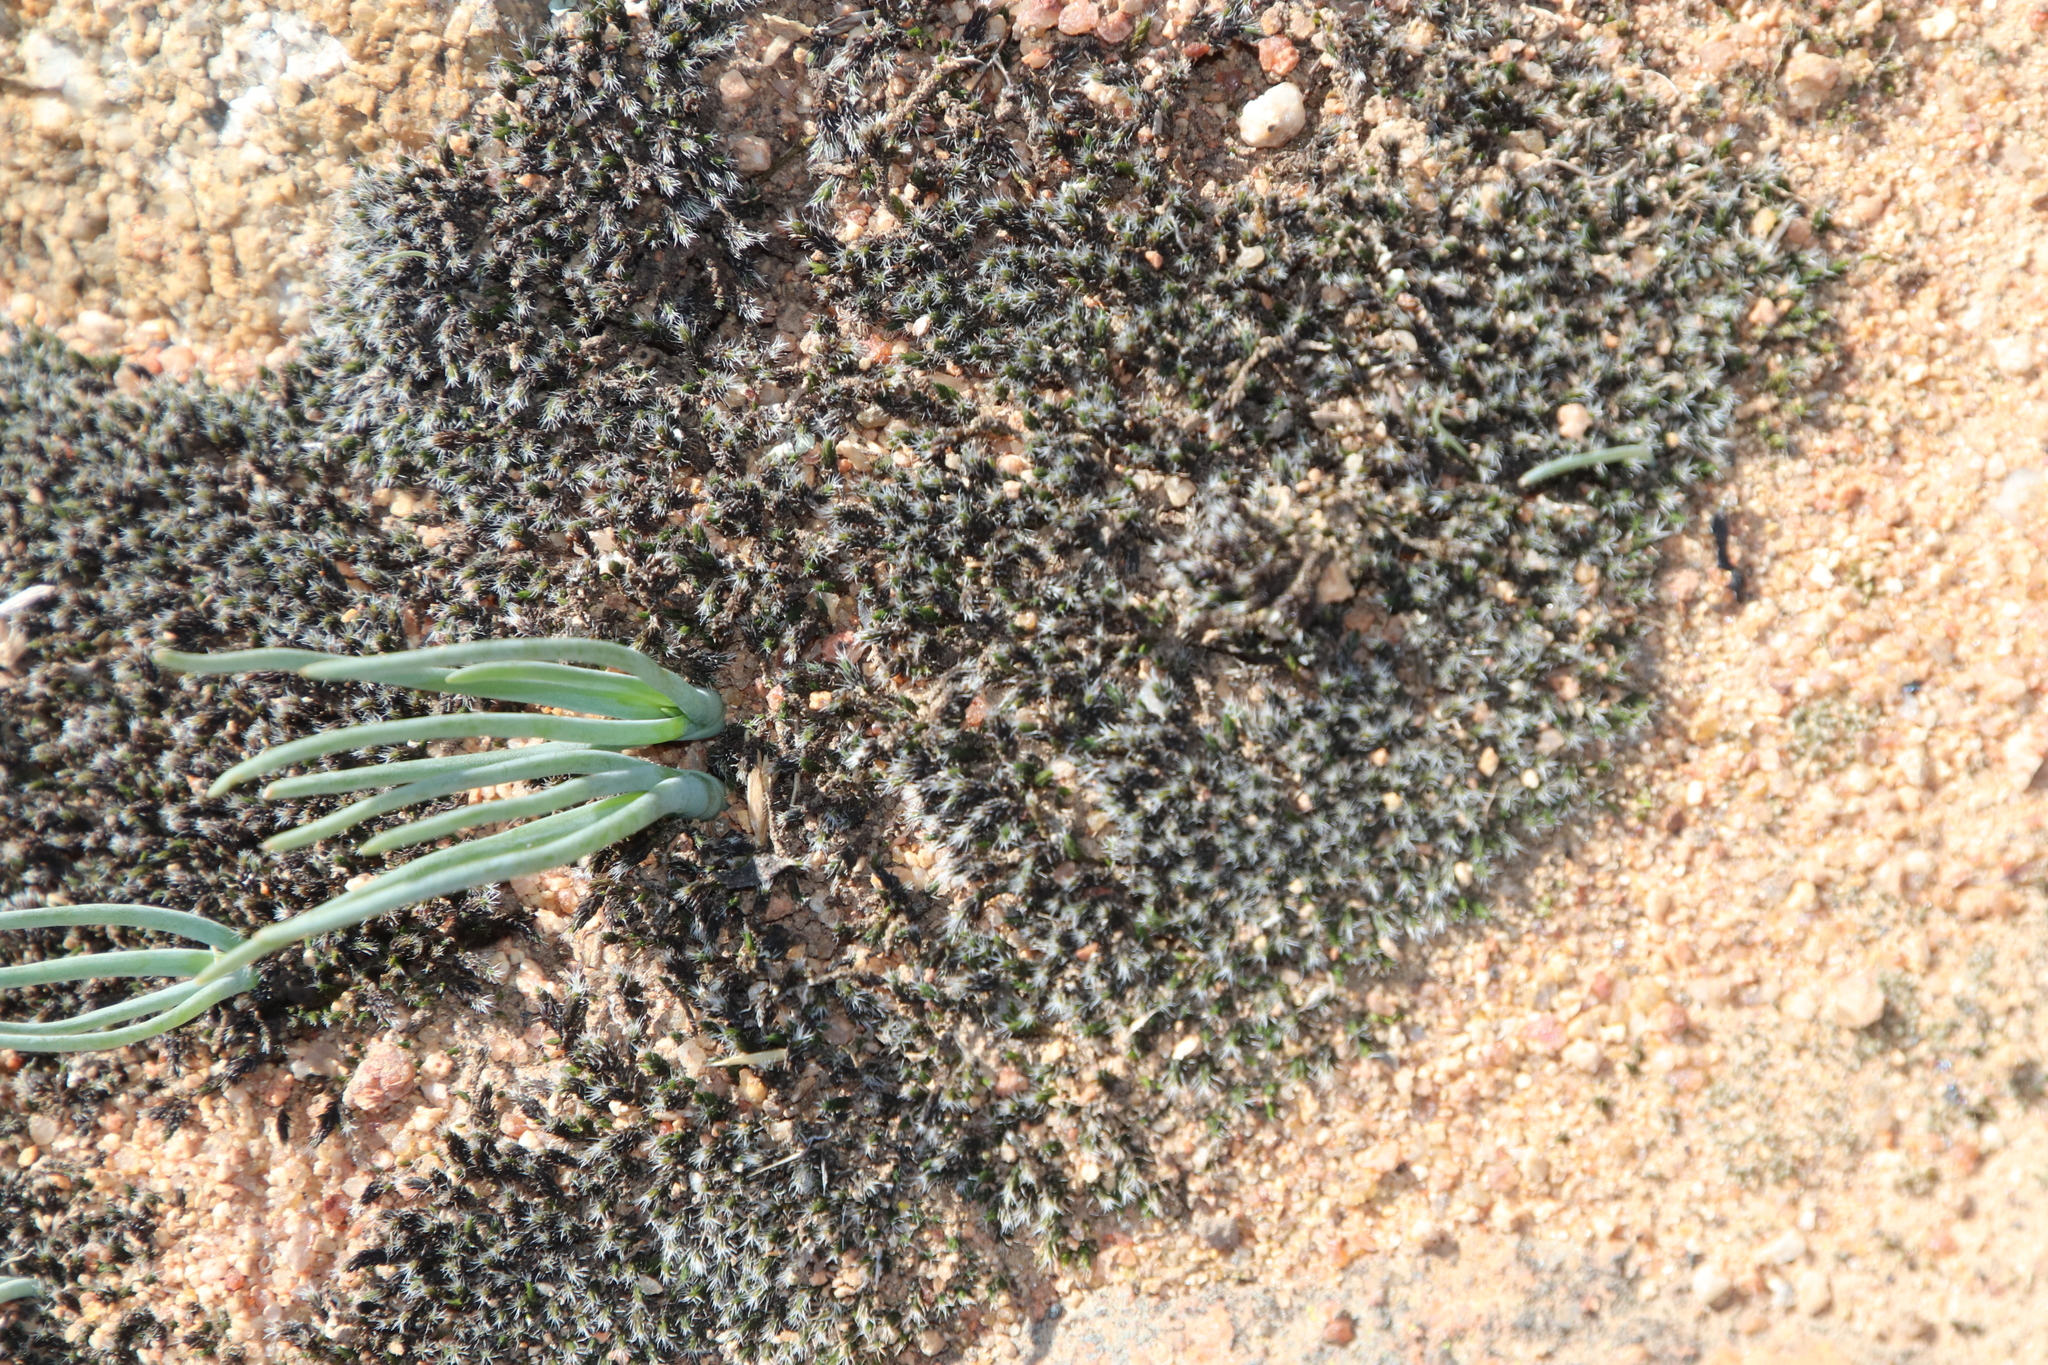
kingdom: Plantae
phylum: Bryophyta
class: Bryopsida
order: Grimmiales
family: Grimmiaceae
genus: Grimmia
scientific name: Grimmia laevigata
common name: Hoary grimmia
